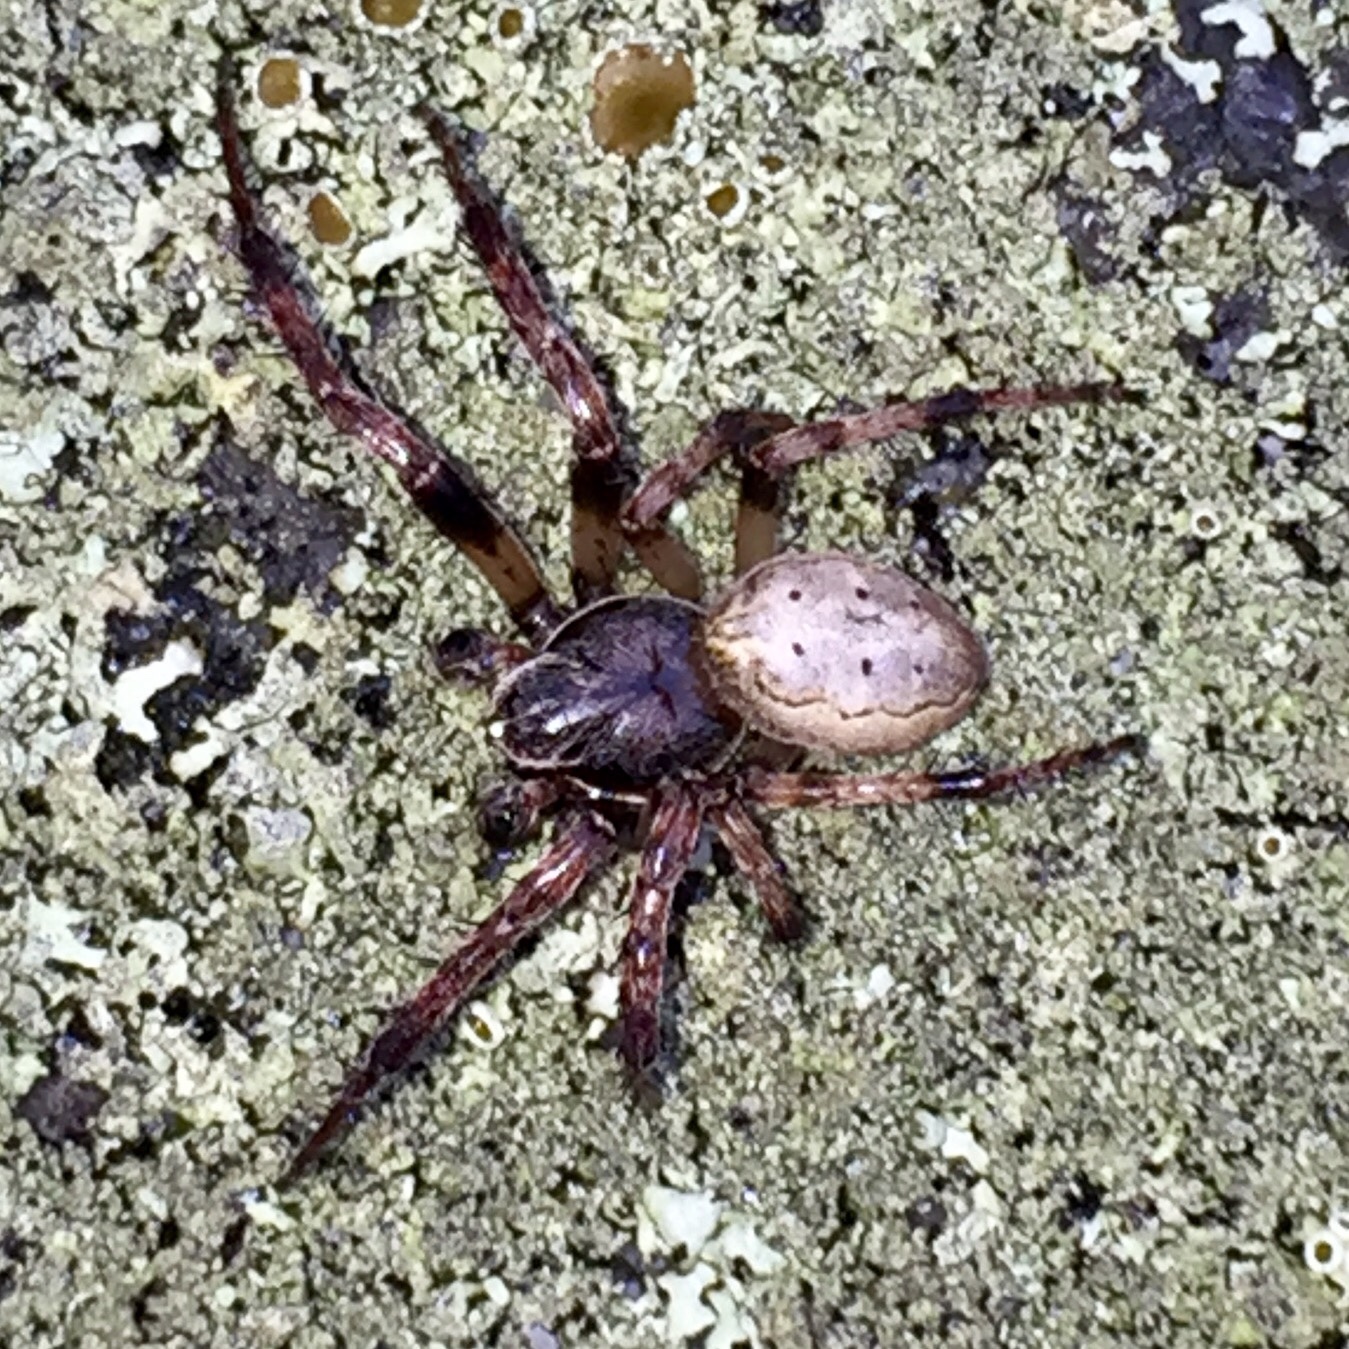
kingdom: Animalia
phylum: Arthropoda
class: Arachnida
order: Araneae
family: Araneidae
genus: Larinioides
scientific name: Larinioides cornutus
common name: Furrow orbweaver
